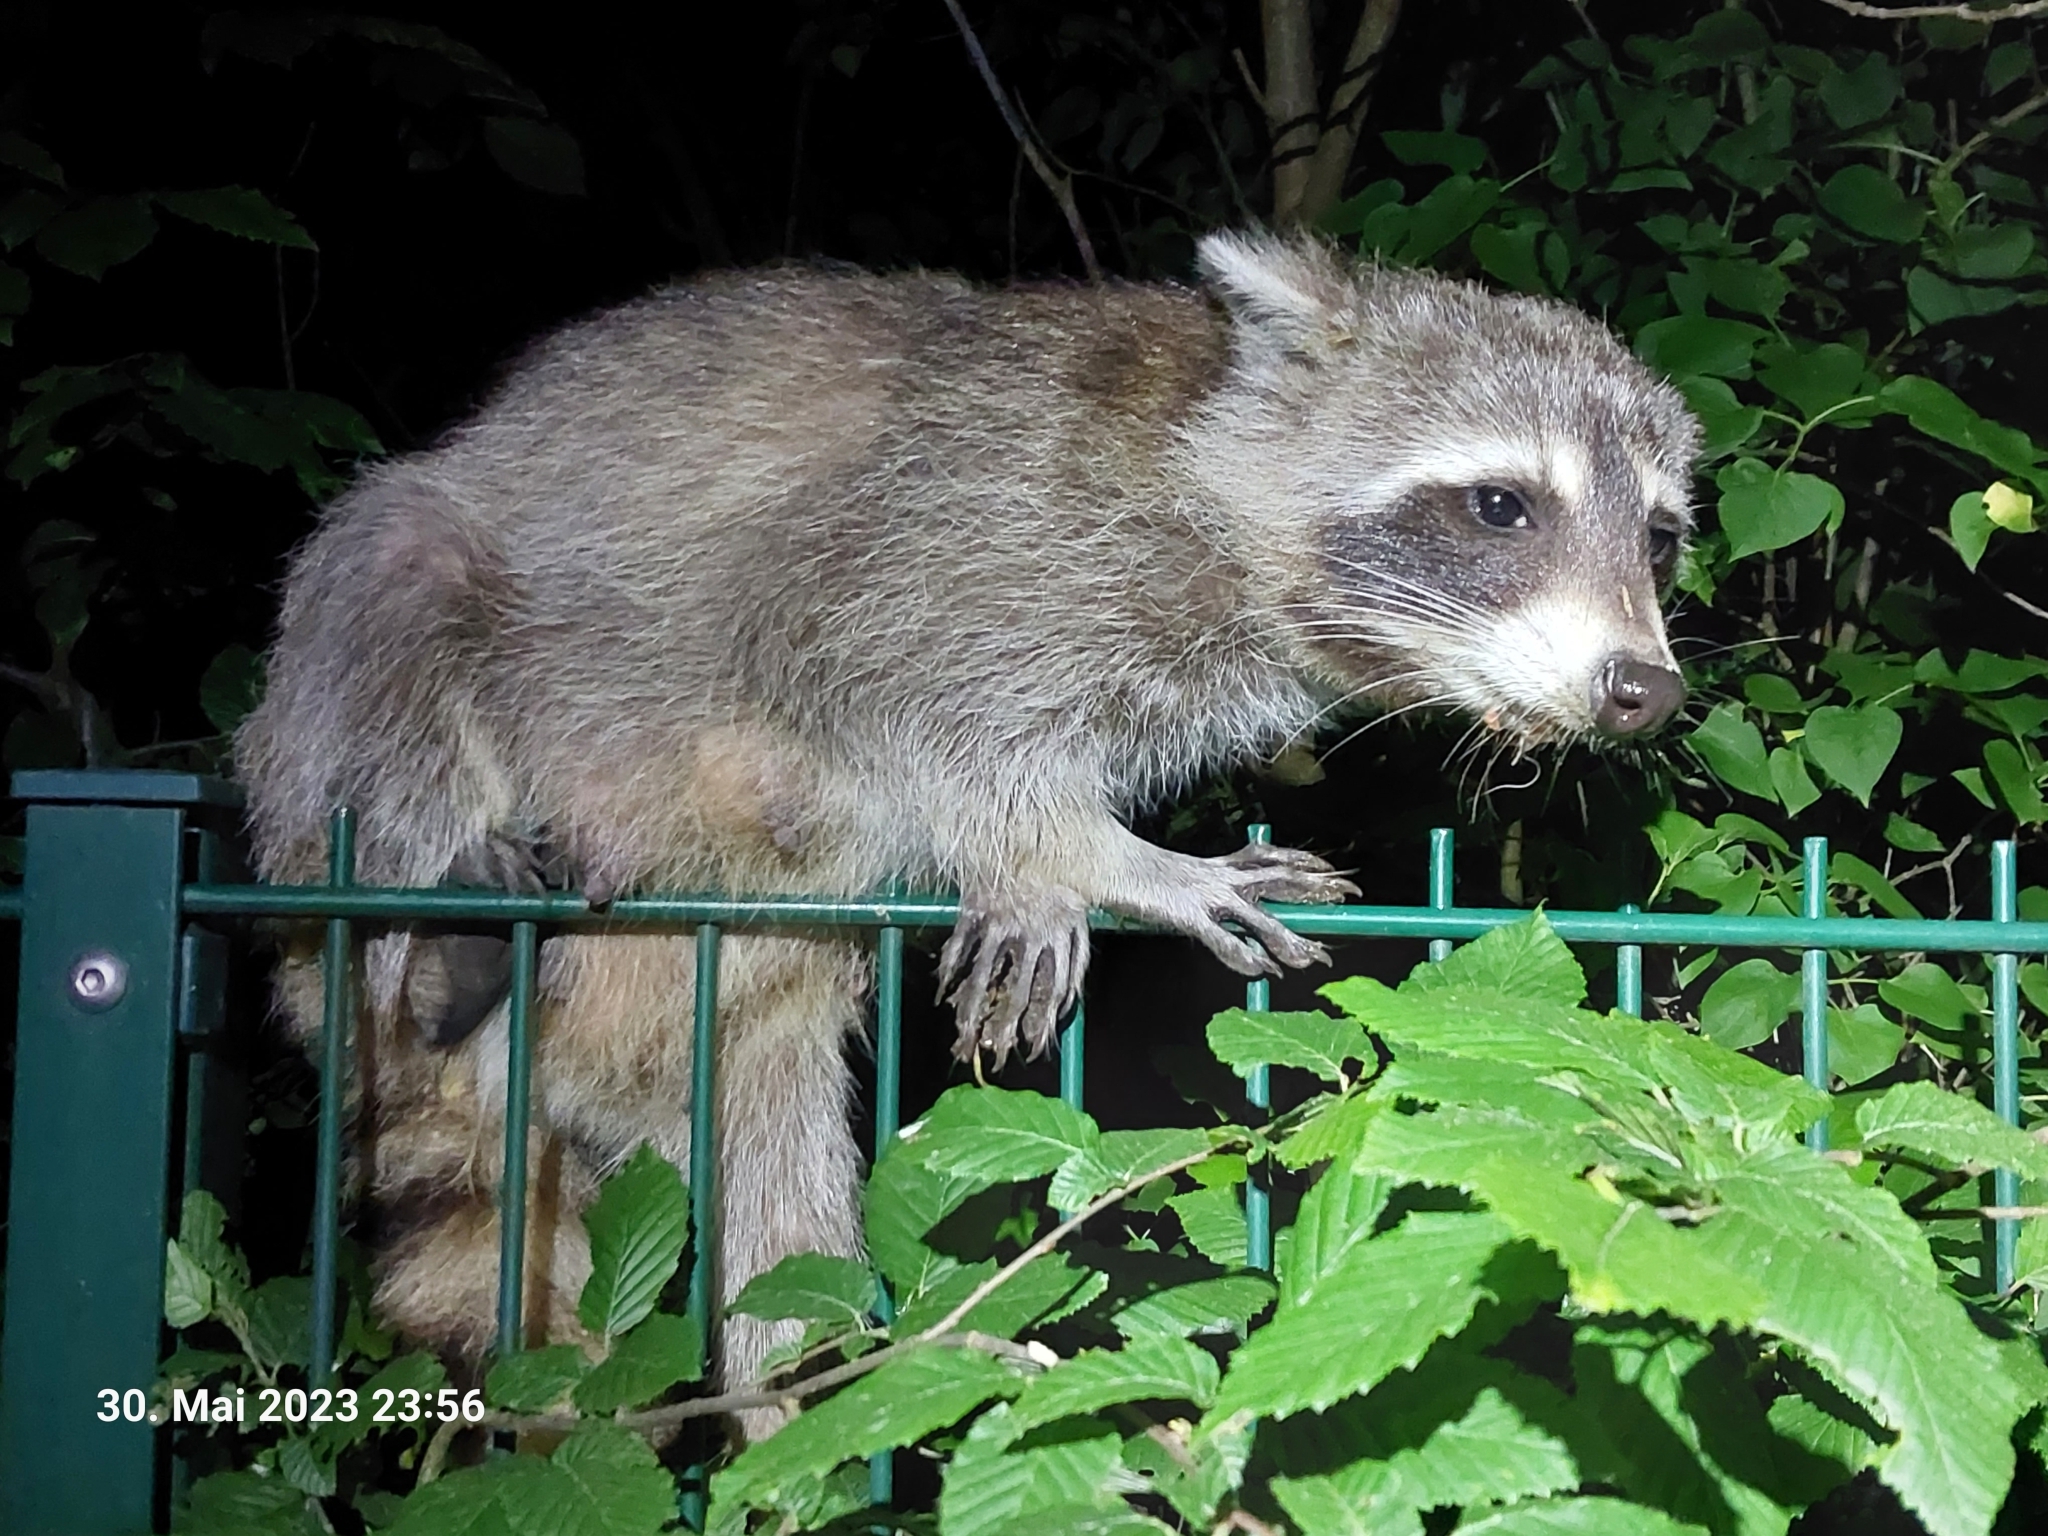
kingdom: Animalia
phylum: Chordata
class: Mammalia
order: Carnivora
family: Procyonidae
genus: Procyon
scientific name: Procyon lotor
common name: Raccoon
